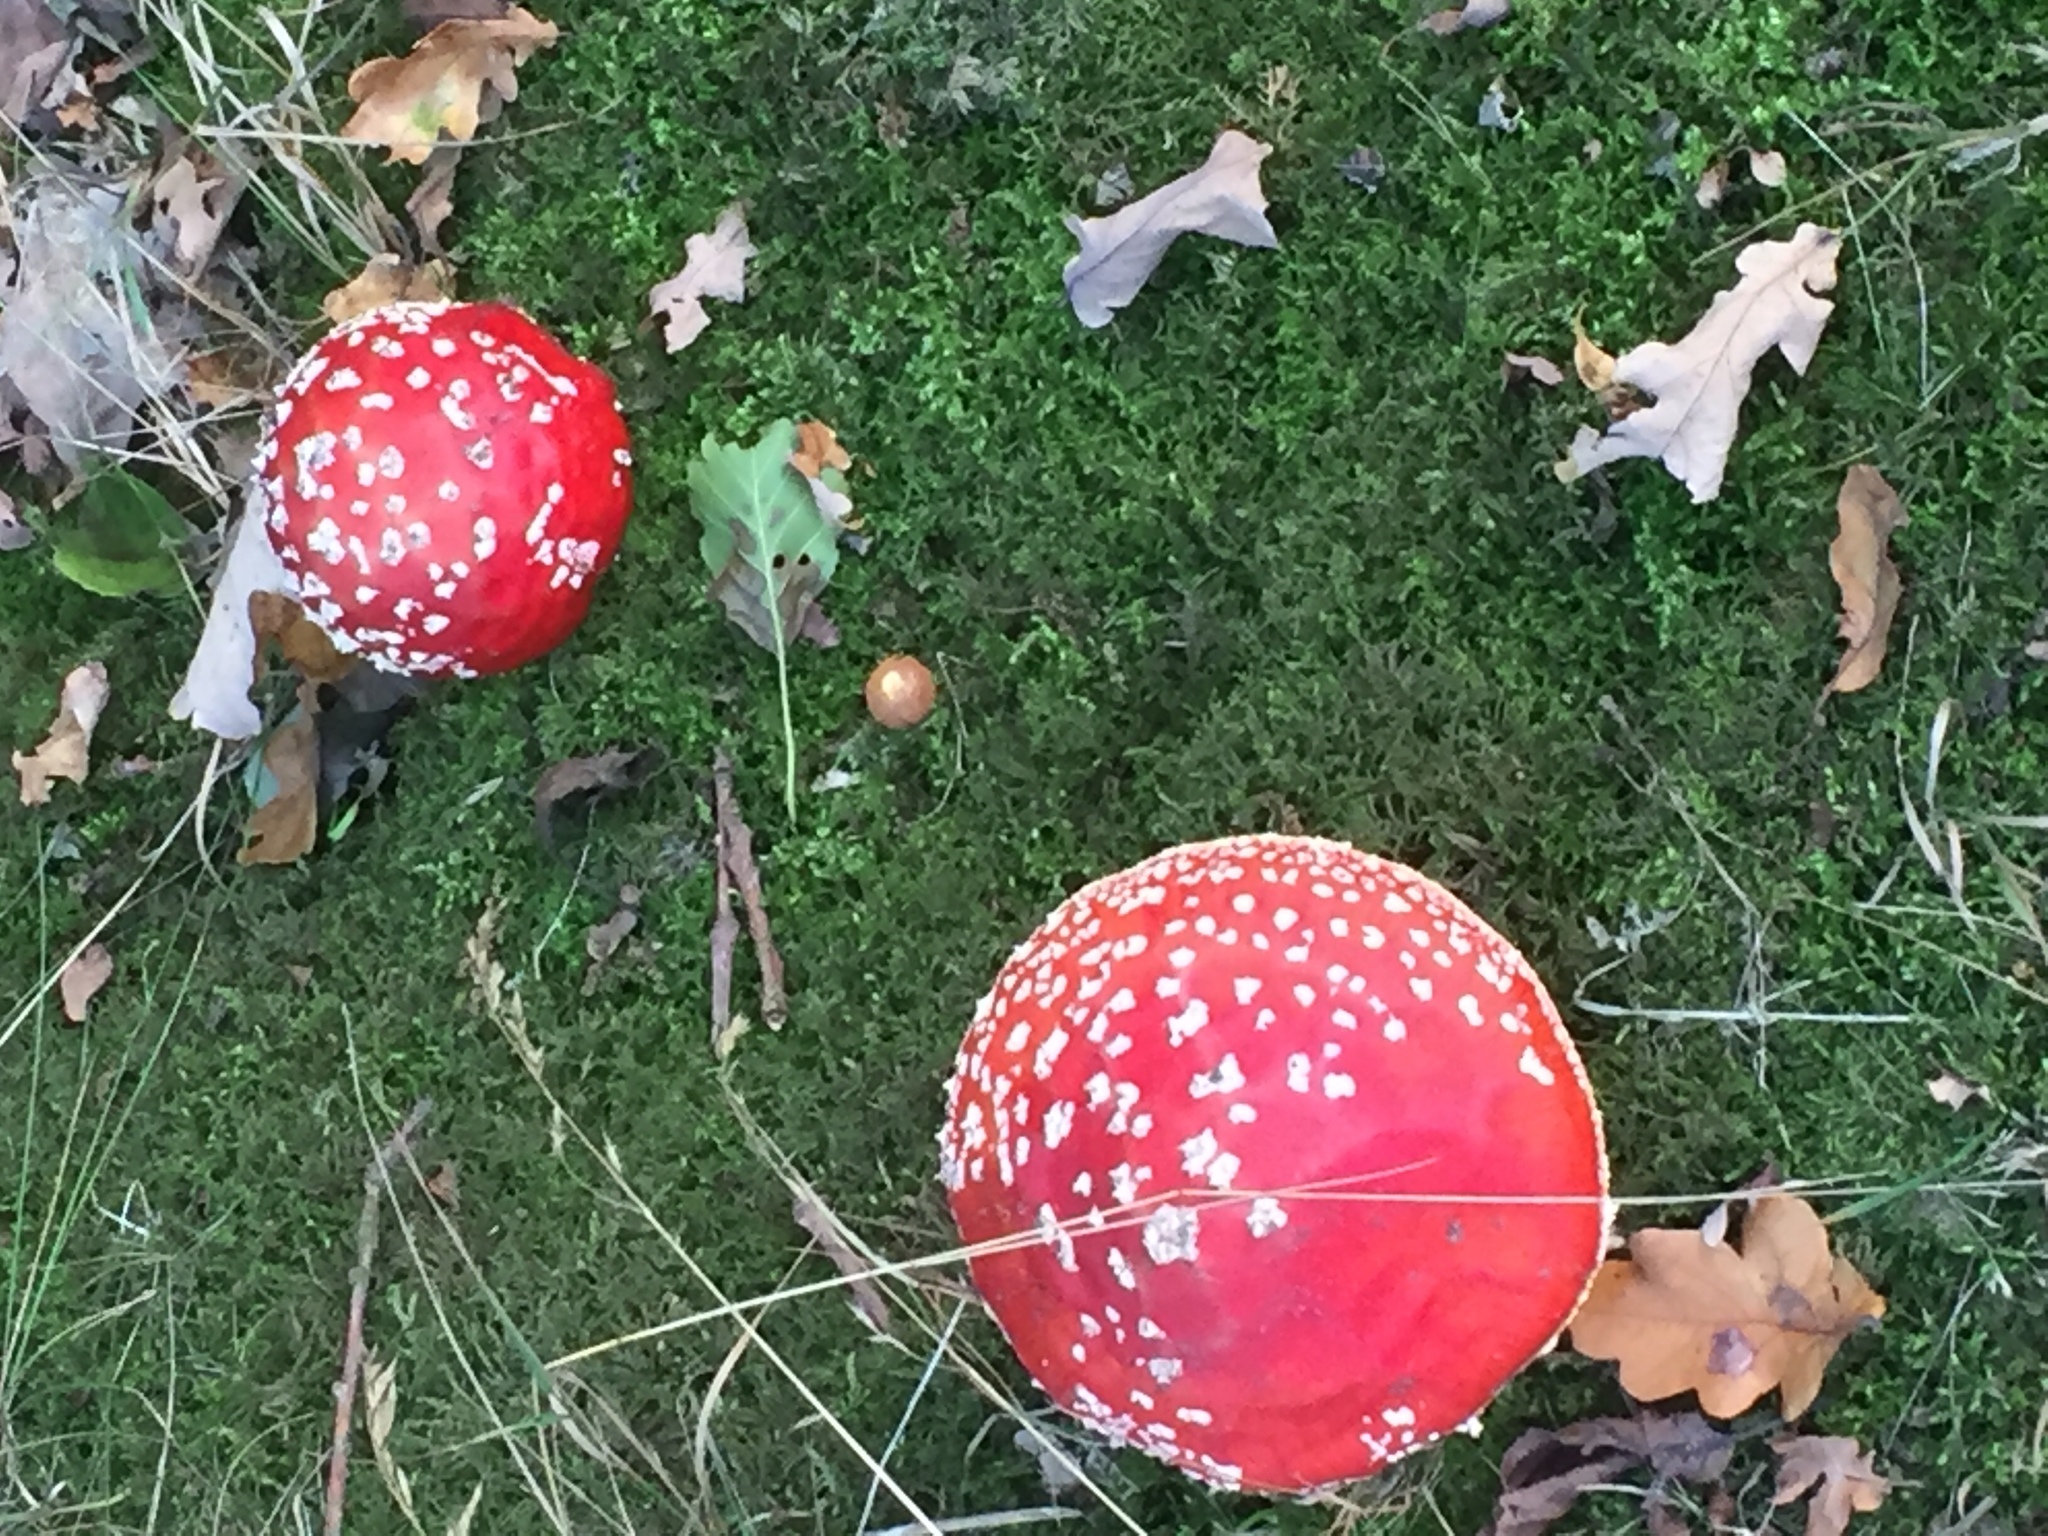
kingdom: Fungi
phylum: Basidiomycota
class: Agaricomycetes
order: Agaricales
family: Amanitaceae
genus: Amanita
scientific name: Amanita muscaria
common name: Fly agaric
